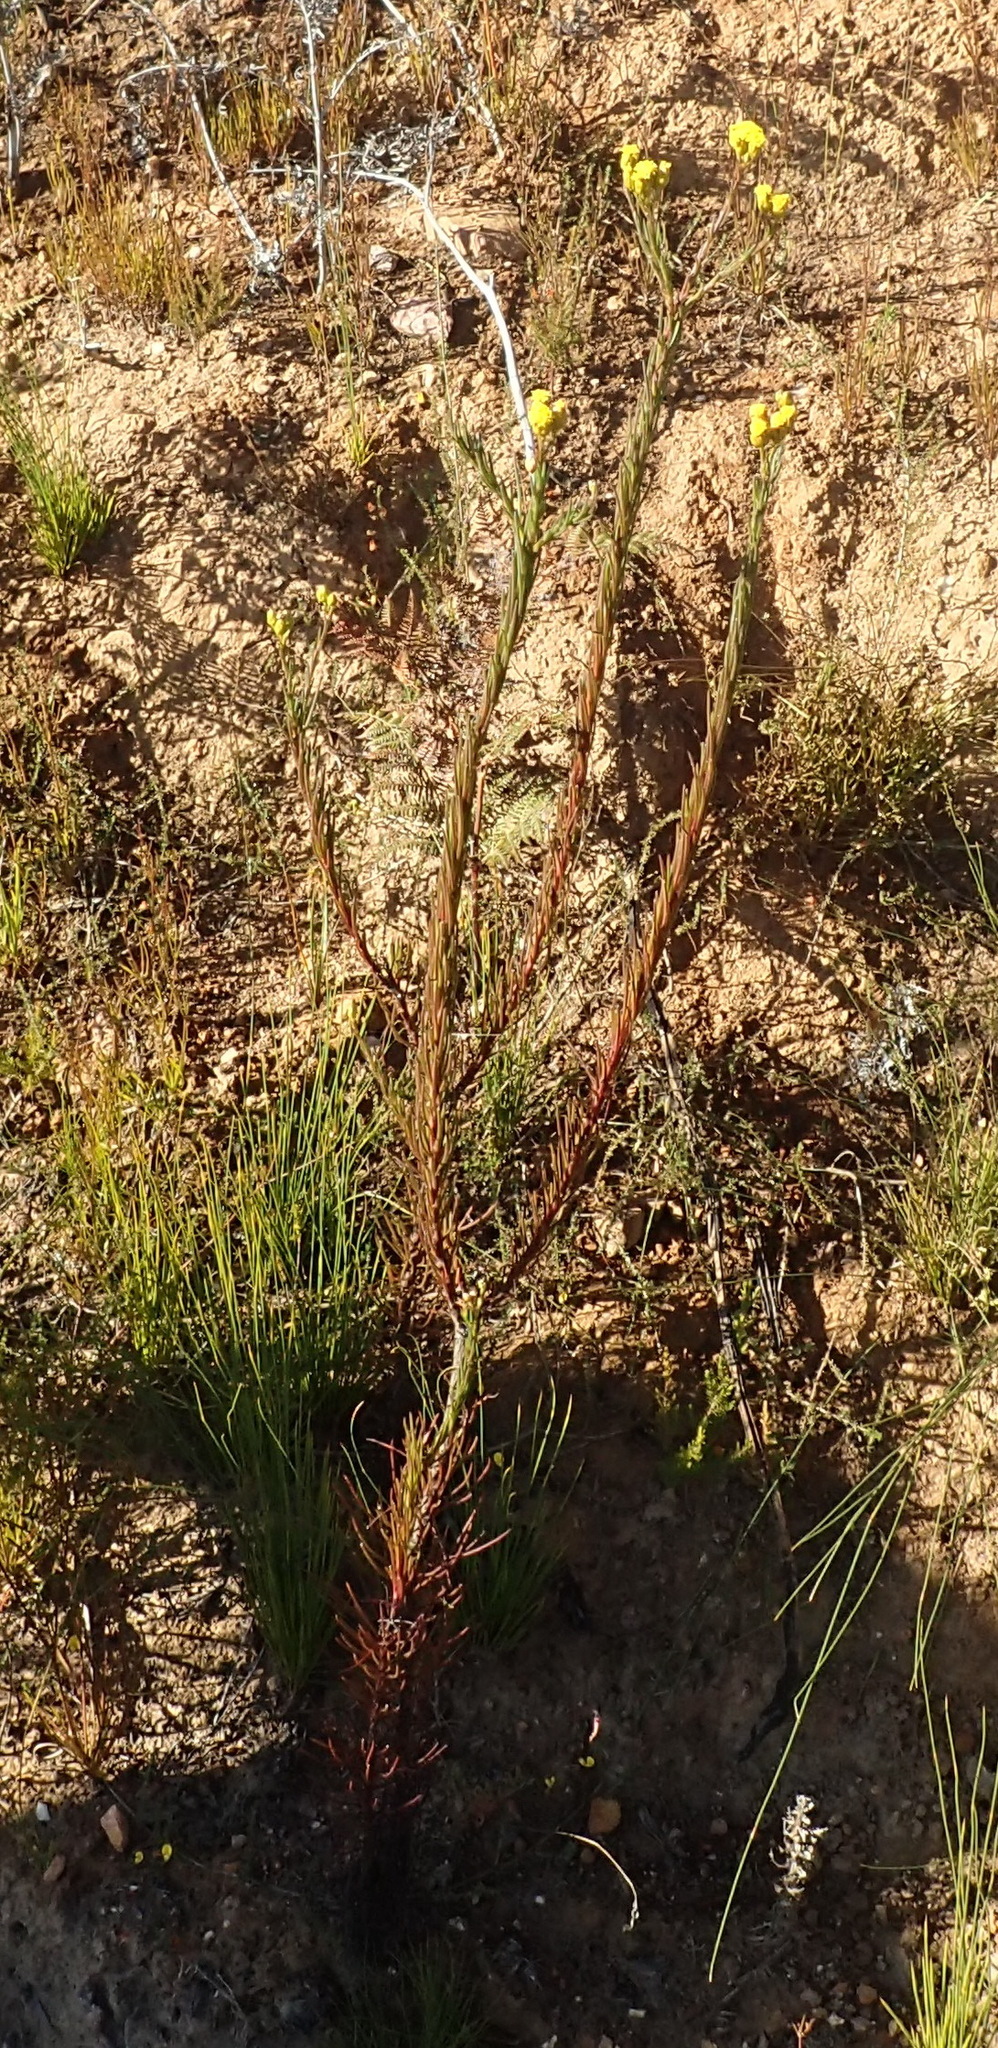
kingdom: Plantae
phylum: Tracheophyta
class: Magnoliopsida
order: Asterales
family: Asteraceae
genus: Athanasia
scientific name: Athanasia linifolia
